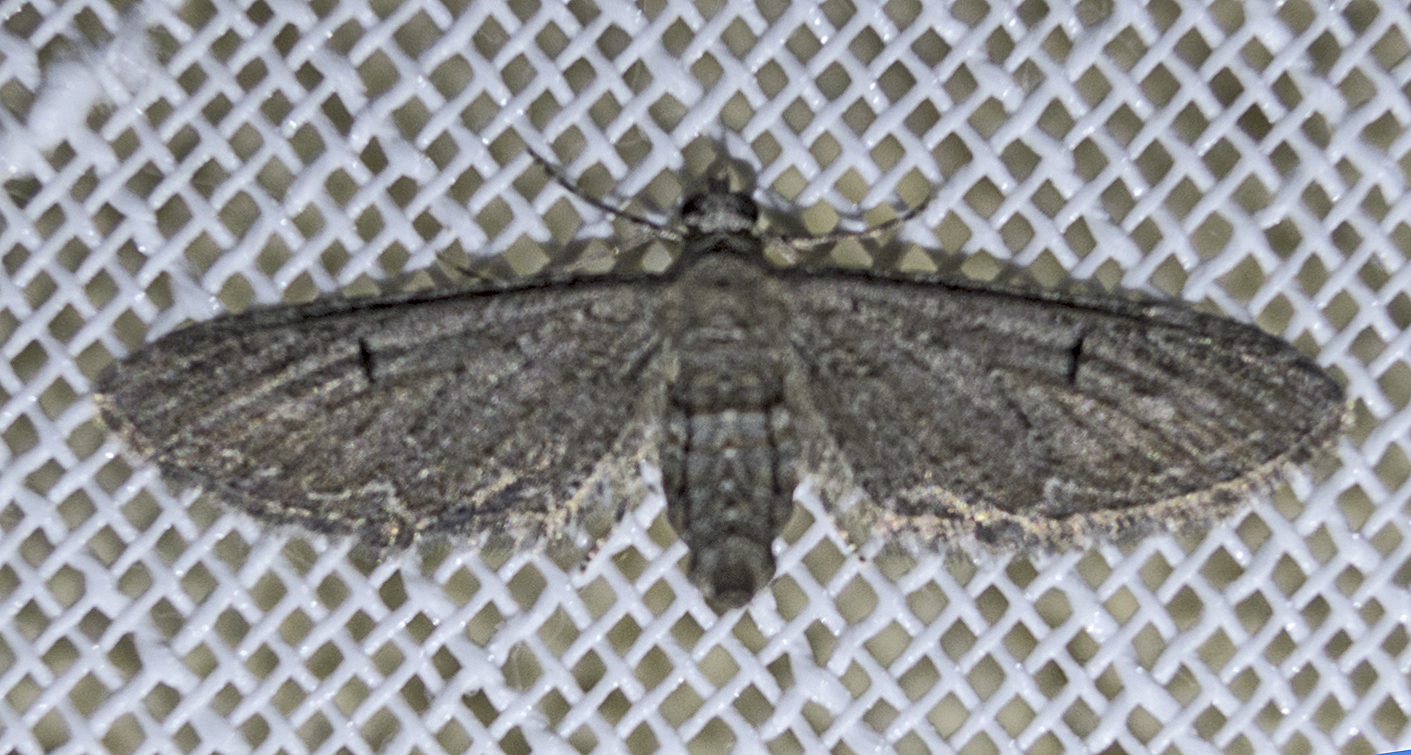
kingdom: Animalia
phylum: Arthropoda
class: Insecta
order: Lepidoptera
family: Geometridae
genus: Eupithecia
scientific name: Eupithecia innotata
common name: Angle-barred pug
